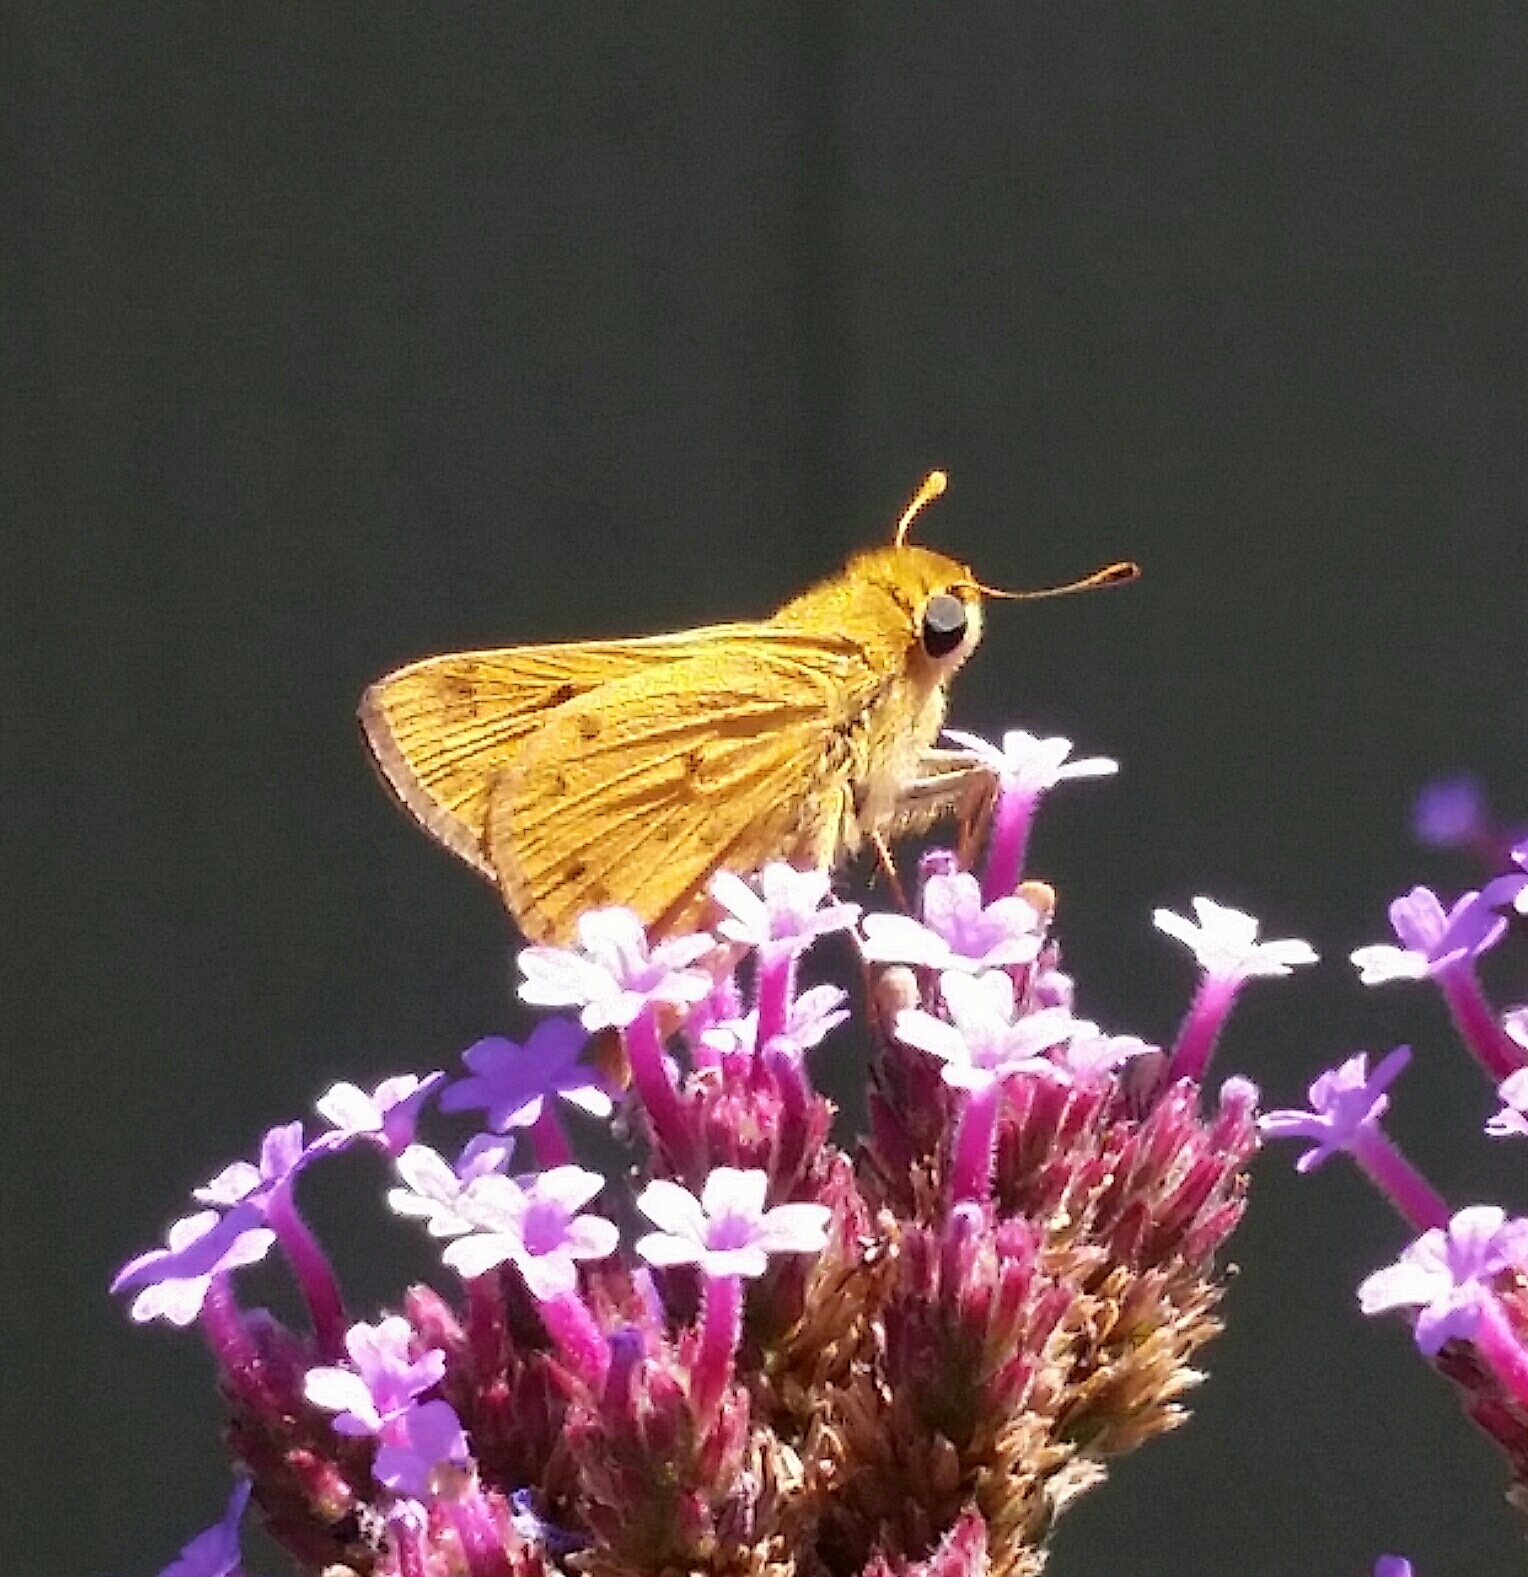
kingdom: Animalia
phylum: Arthropoda
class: Insecta
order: Lepidoptera
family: Hesperiidae
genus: Hylephila
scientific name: Hylephila phyleus
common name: Fiery skipper
